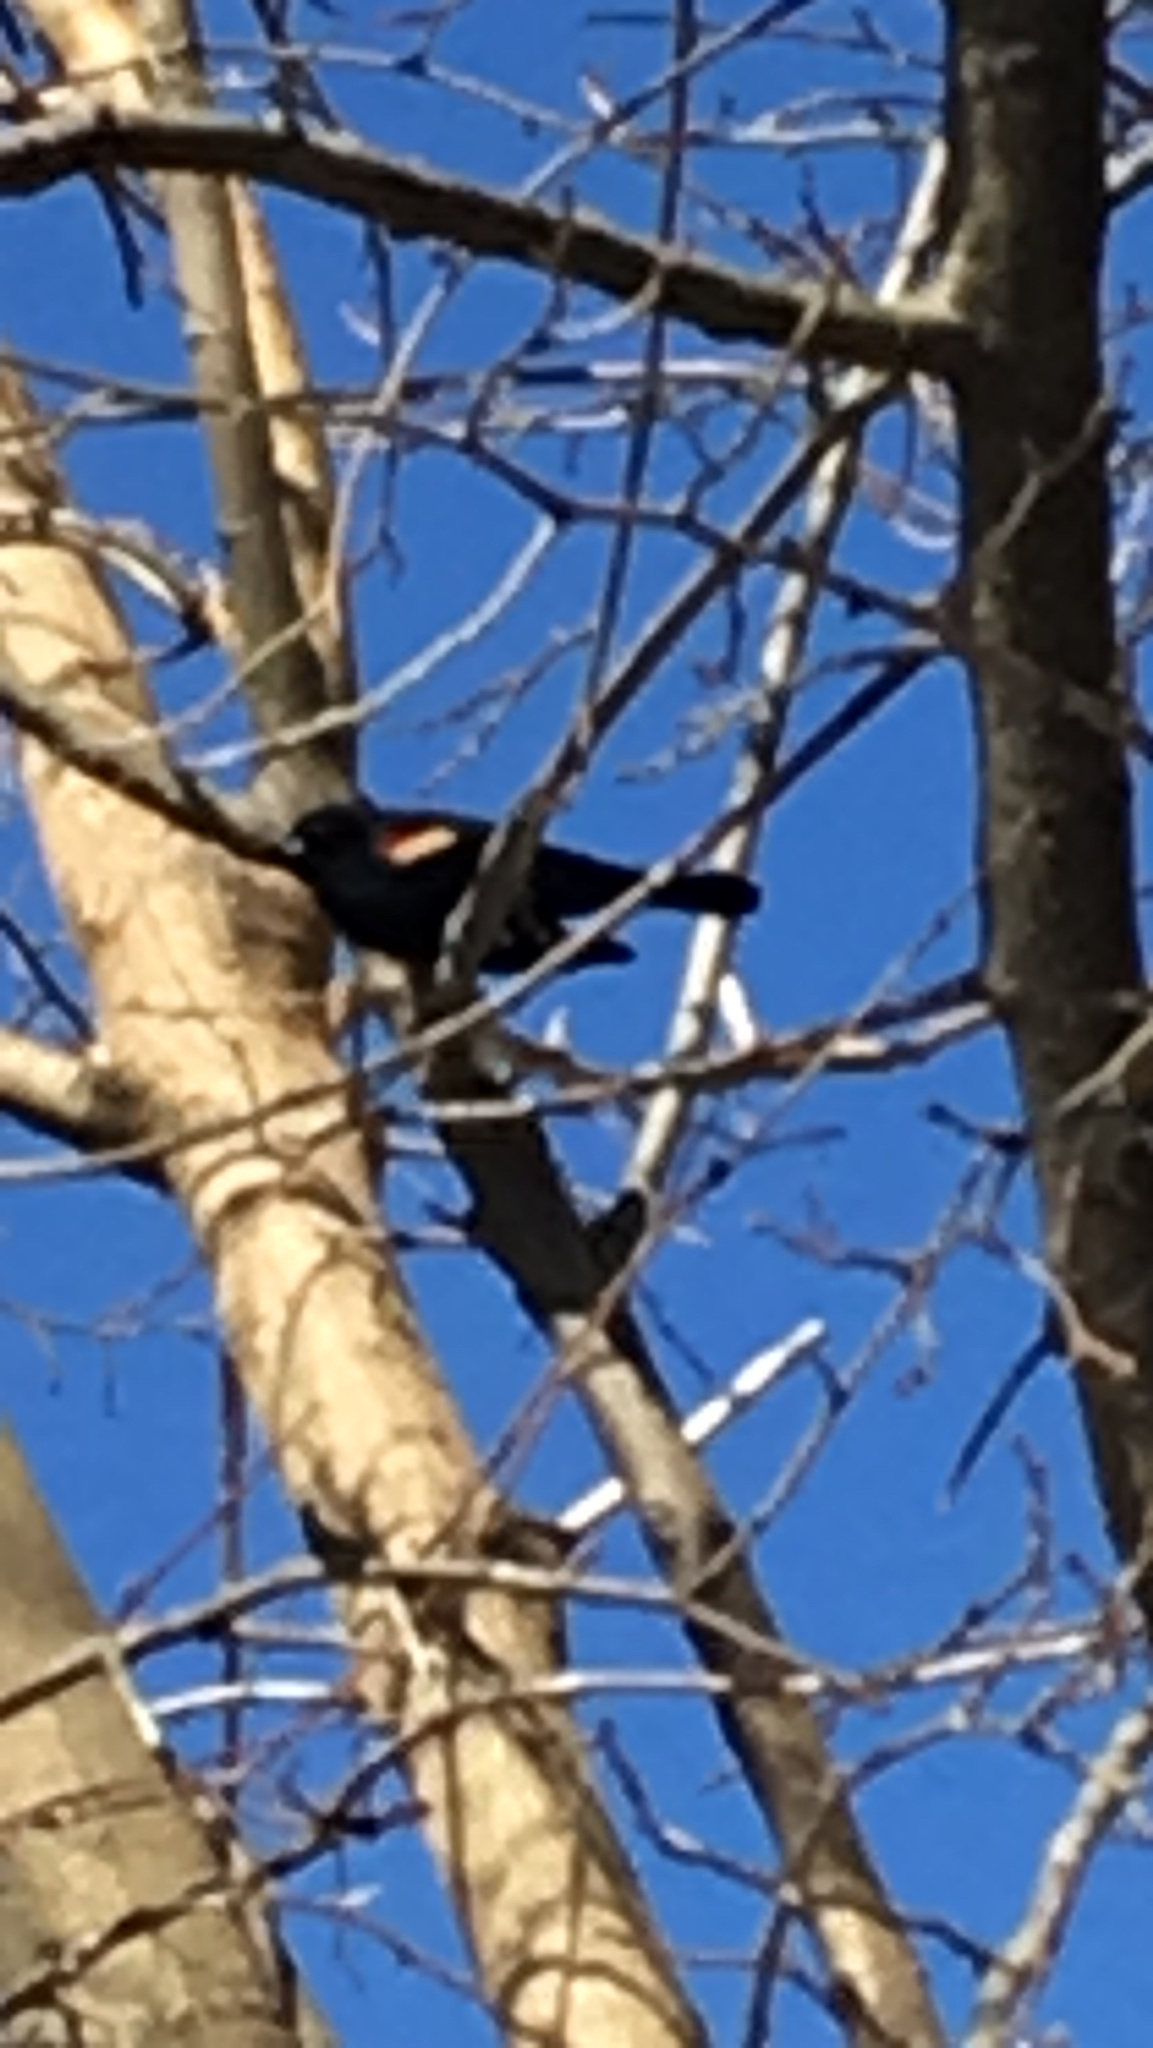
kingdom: Animalia
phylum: Chordata
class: Aves
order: Passeriformes
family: Icteridae
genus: Agelaius
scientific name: Agelaius phoeniceus
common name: Red-winged blackbird
